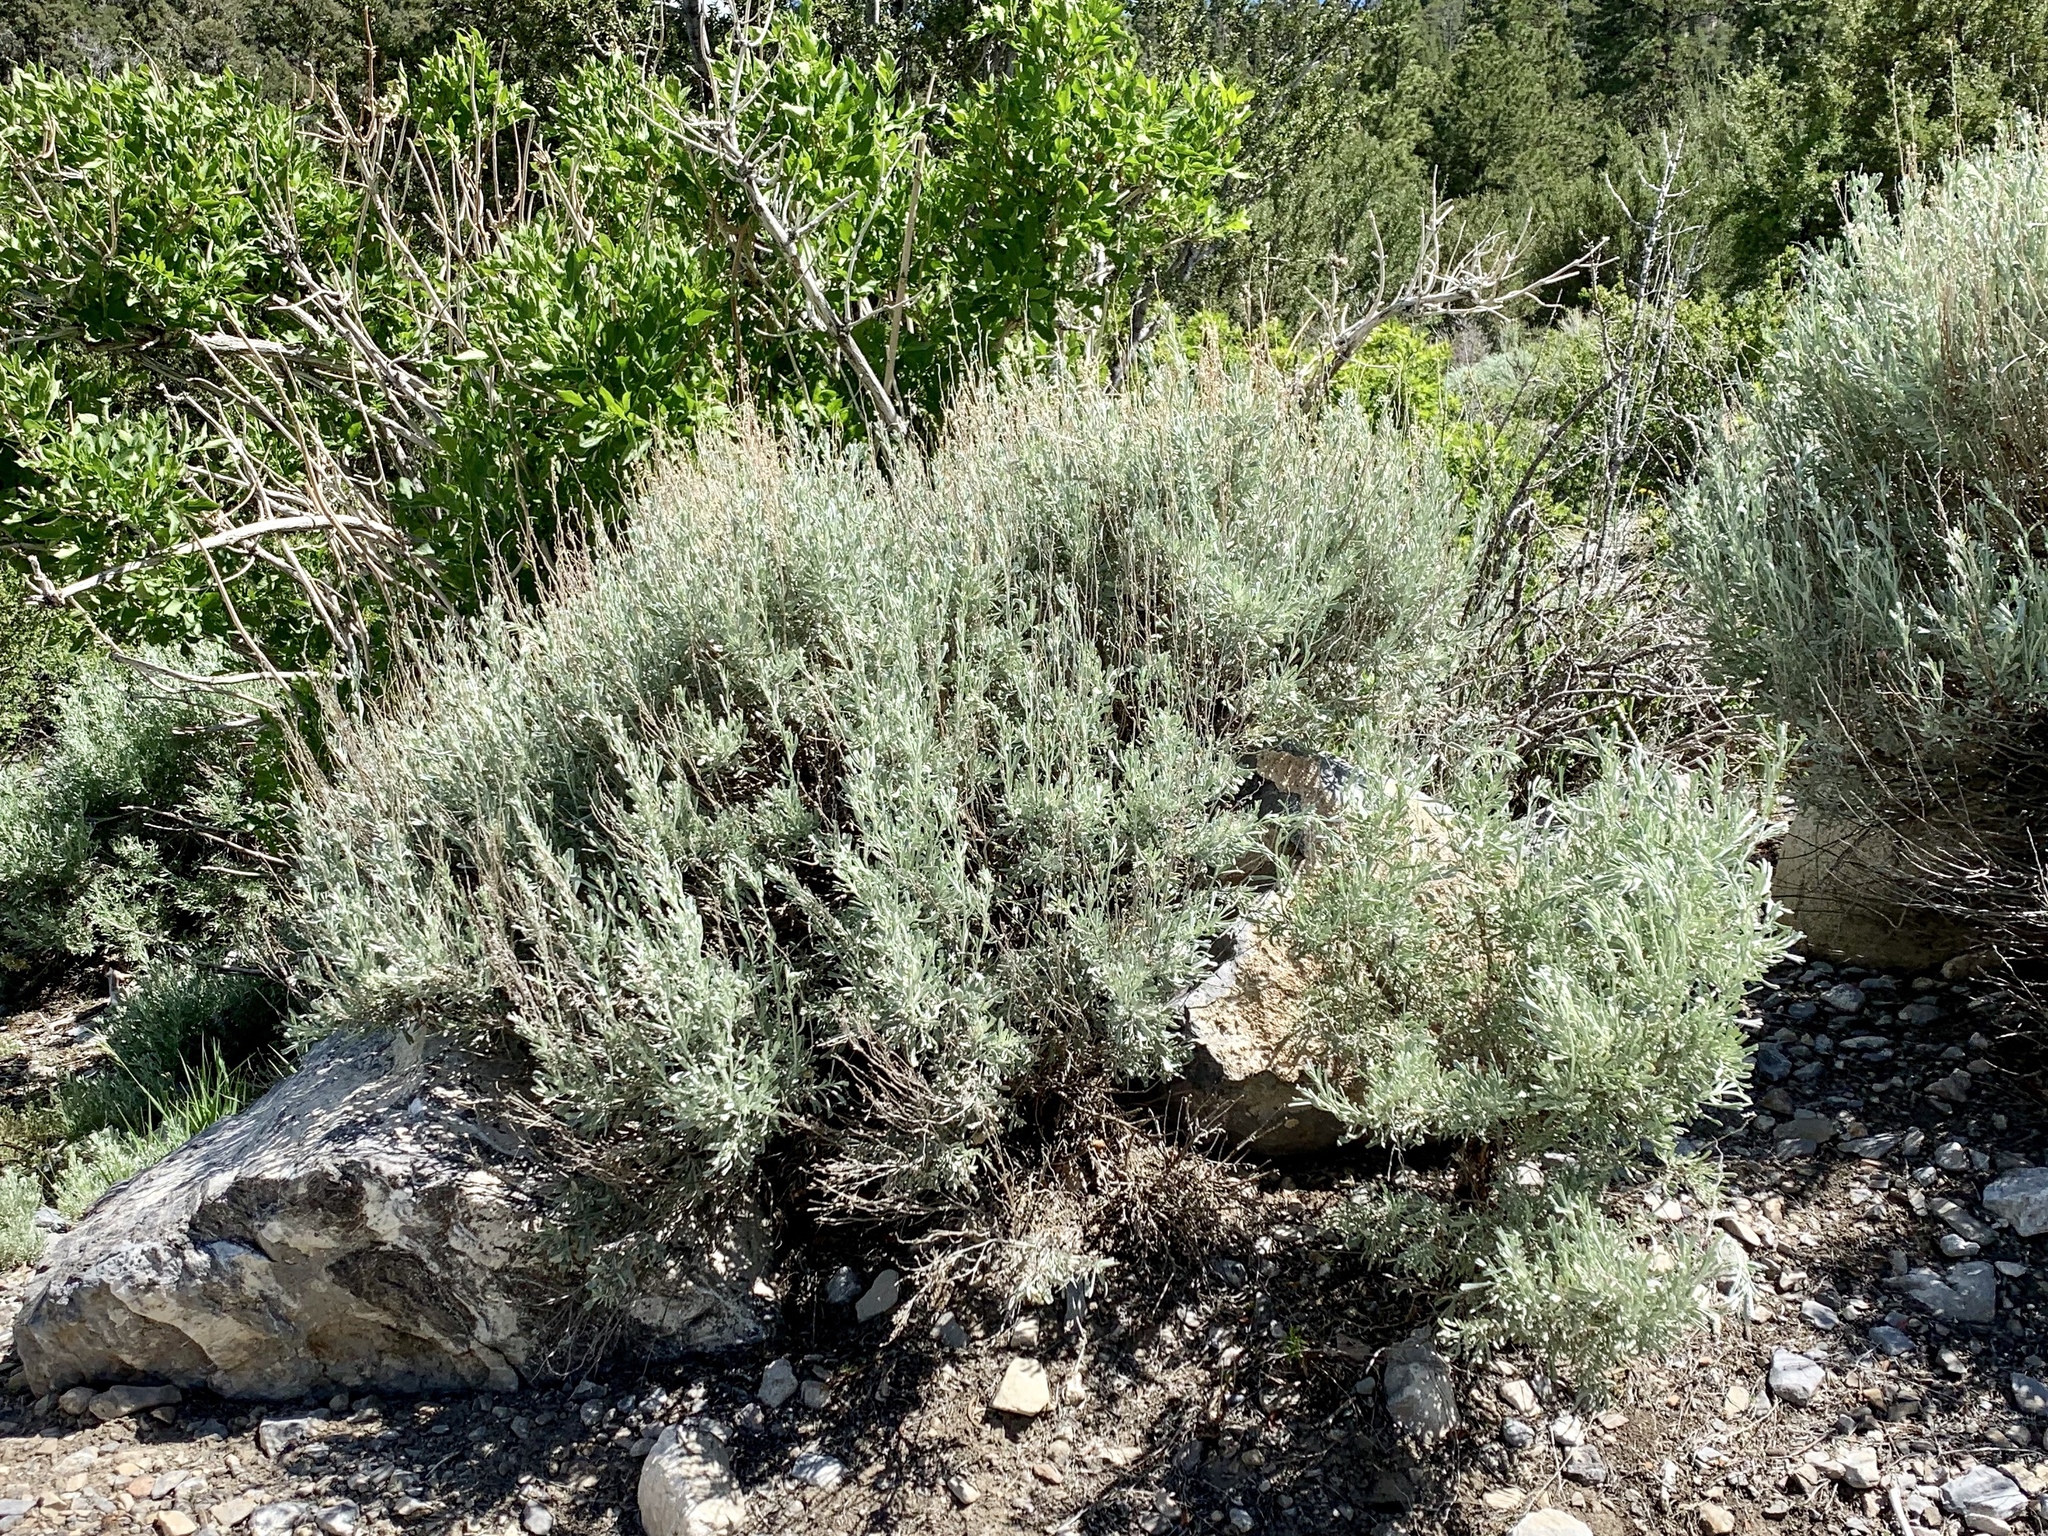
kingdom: Plantae
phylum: Tracheophyta
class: Magnoliopsida
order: Asterales
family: Asteraceae
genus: Artemisia
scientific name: Artemisia tridentata
